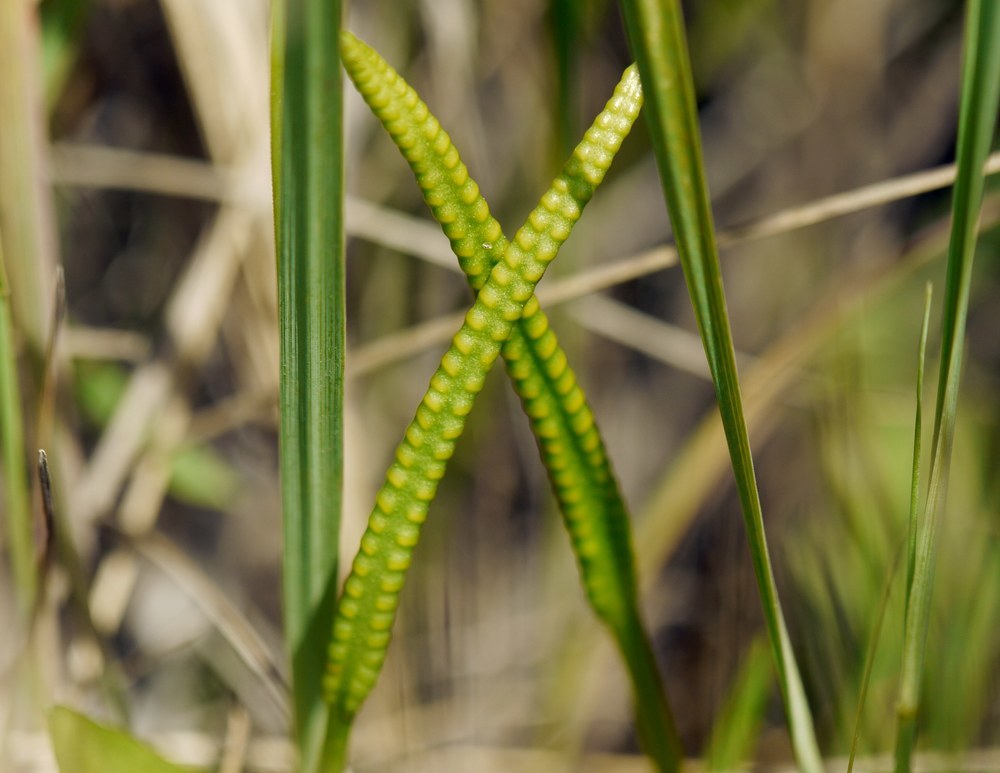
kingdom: Plantae
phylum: Tracheophyta
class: Polypodiopsida
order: Ophioglossales
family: Ophioglossaceae
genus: Ophioglossum
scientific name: Ophioglossum vulgatum
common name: Adder's-tongue
